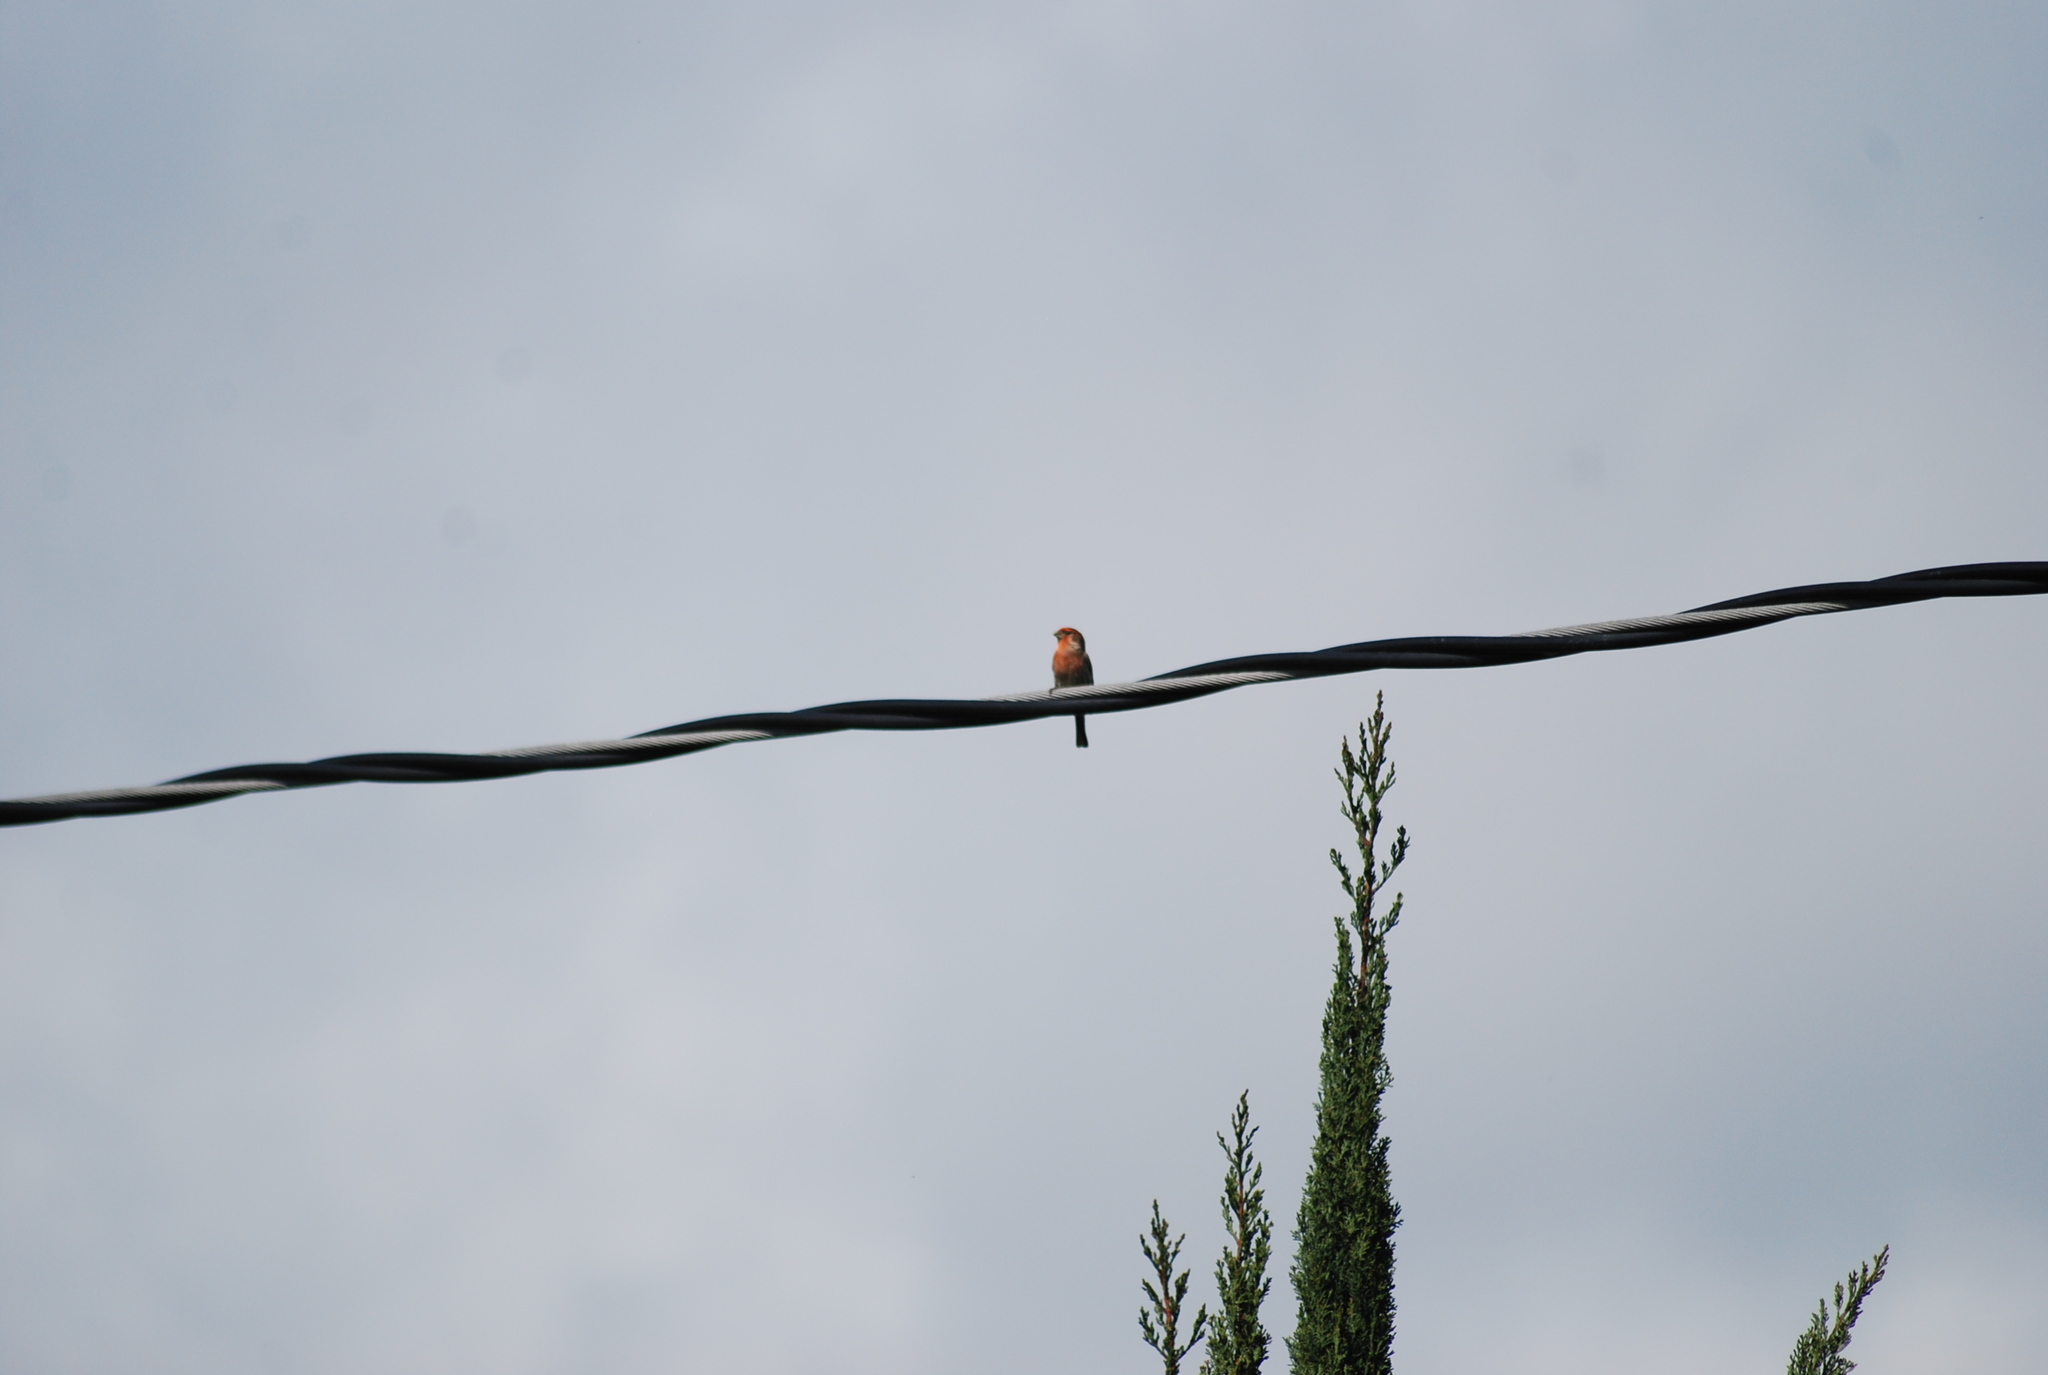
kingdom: Animalia
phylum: Chordata
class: Aves
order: Passeriformes
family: Fringillidae
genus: Haemorhous
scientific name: Haemorhous mexicanus
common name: House finch
